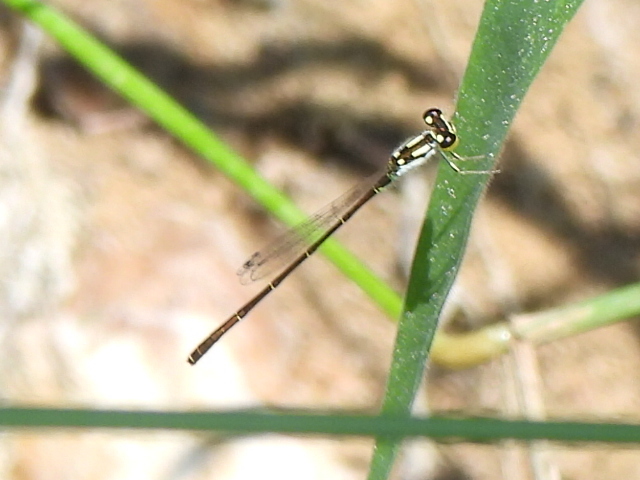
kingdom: Animalia
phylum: Arthropoda
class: Insecta
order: Odonata
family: Coenagrionidae
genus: Ischnura
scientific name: Ischnura posita
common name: Fragile forktail
